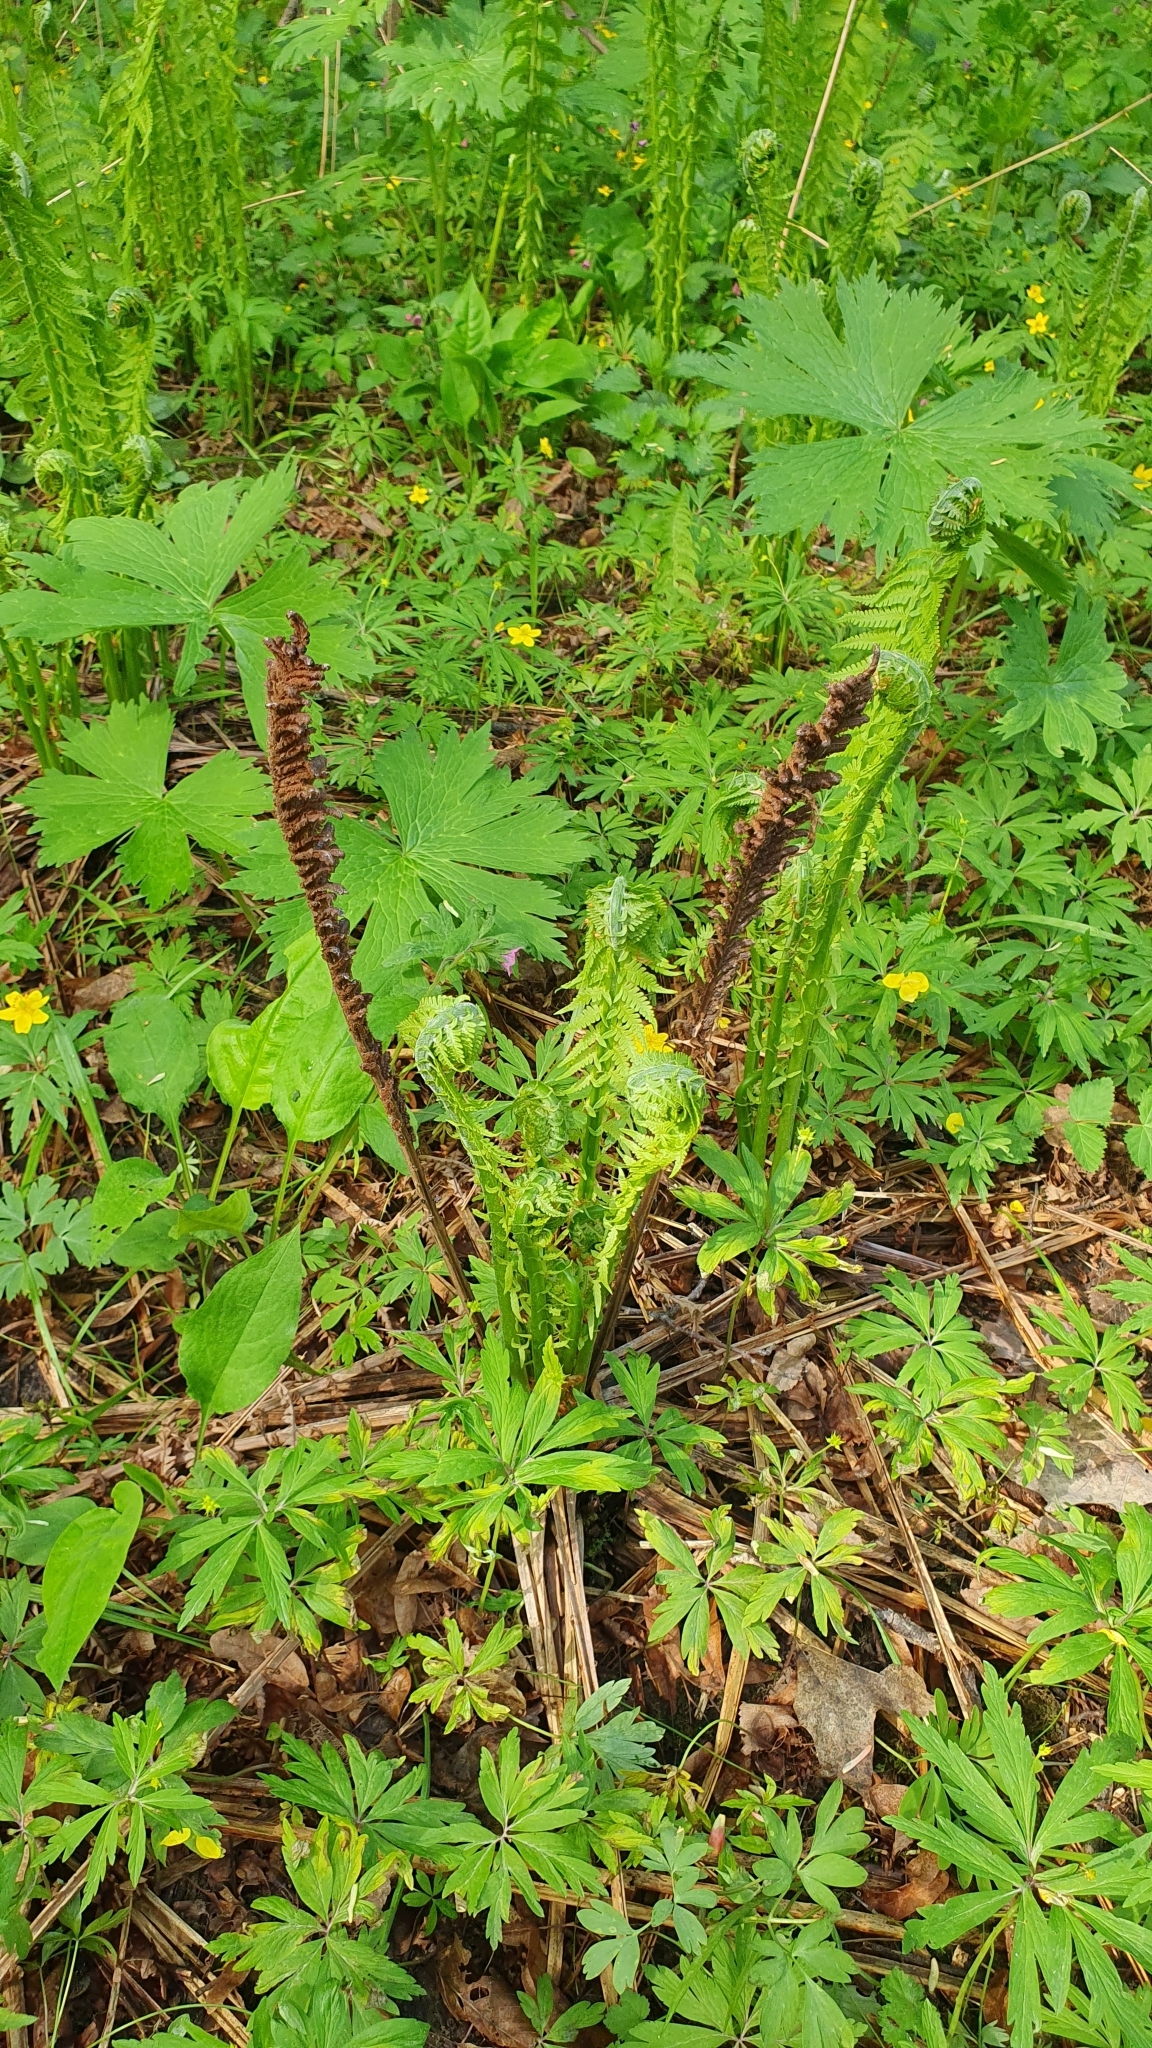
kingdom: Plantae
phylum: Tracheophyta
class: Polypodiopsida
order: Polypodiales
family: Onocleaceae
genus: Matteuccia
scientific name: Matteuccia struthiopteris
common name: Ostrich fern
